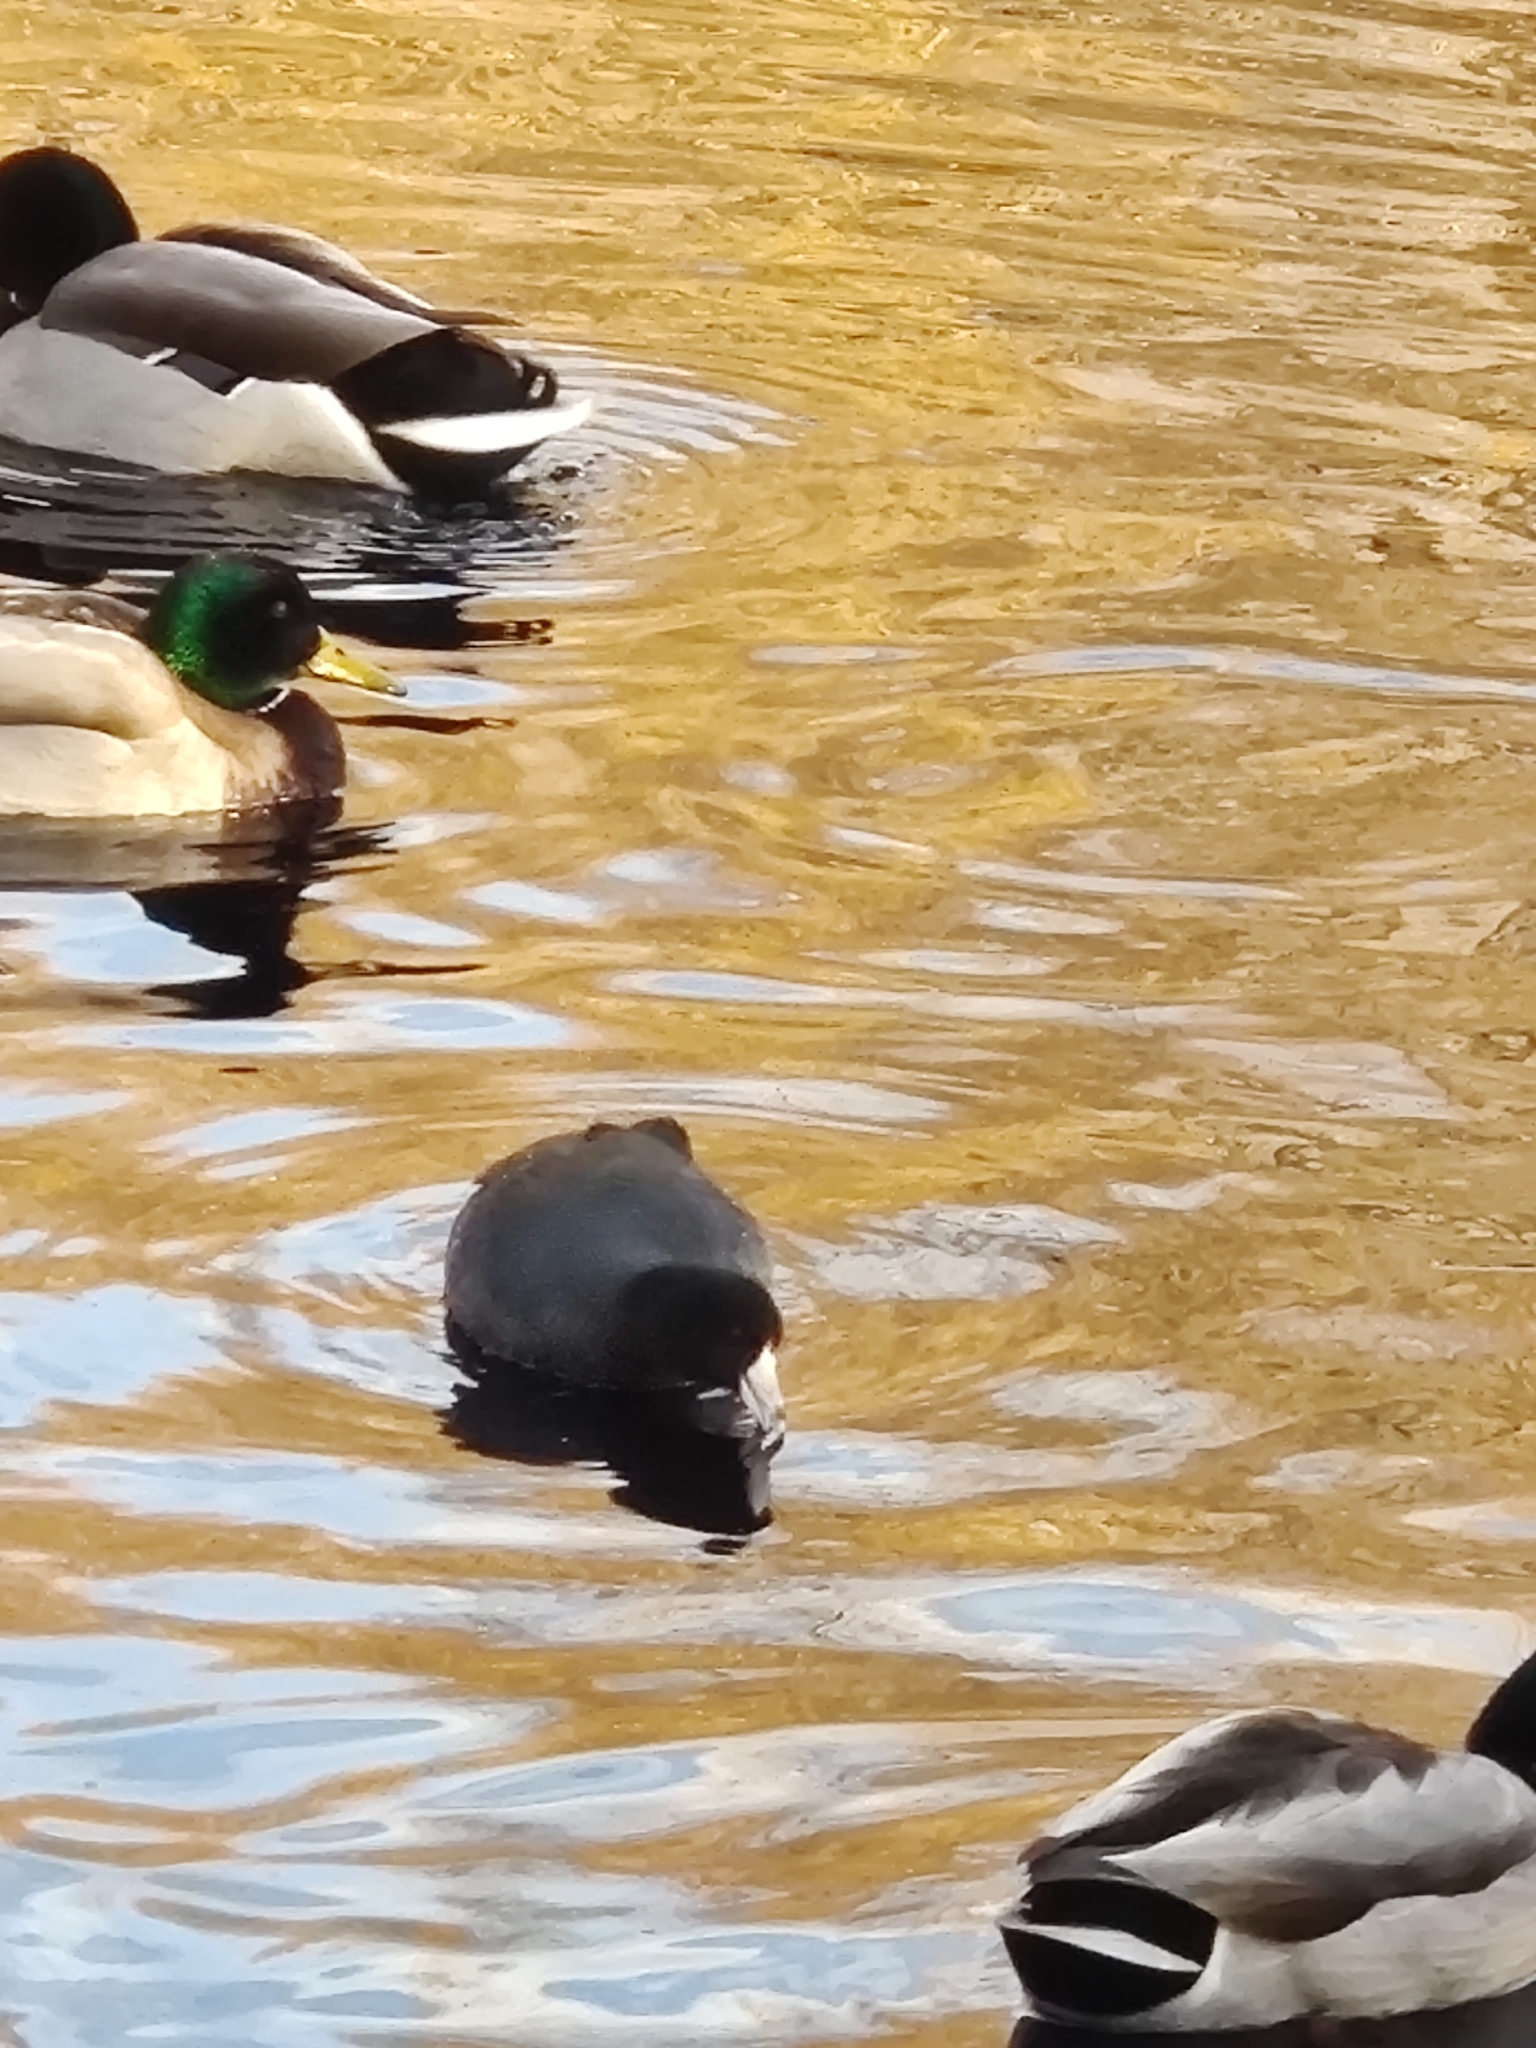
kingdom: Animalia
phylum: Chordata
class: Aves
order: Gruiformes
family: Rallidae
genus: Fulica
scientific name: Fulica americana
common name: American coot
